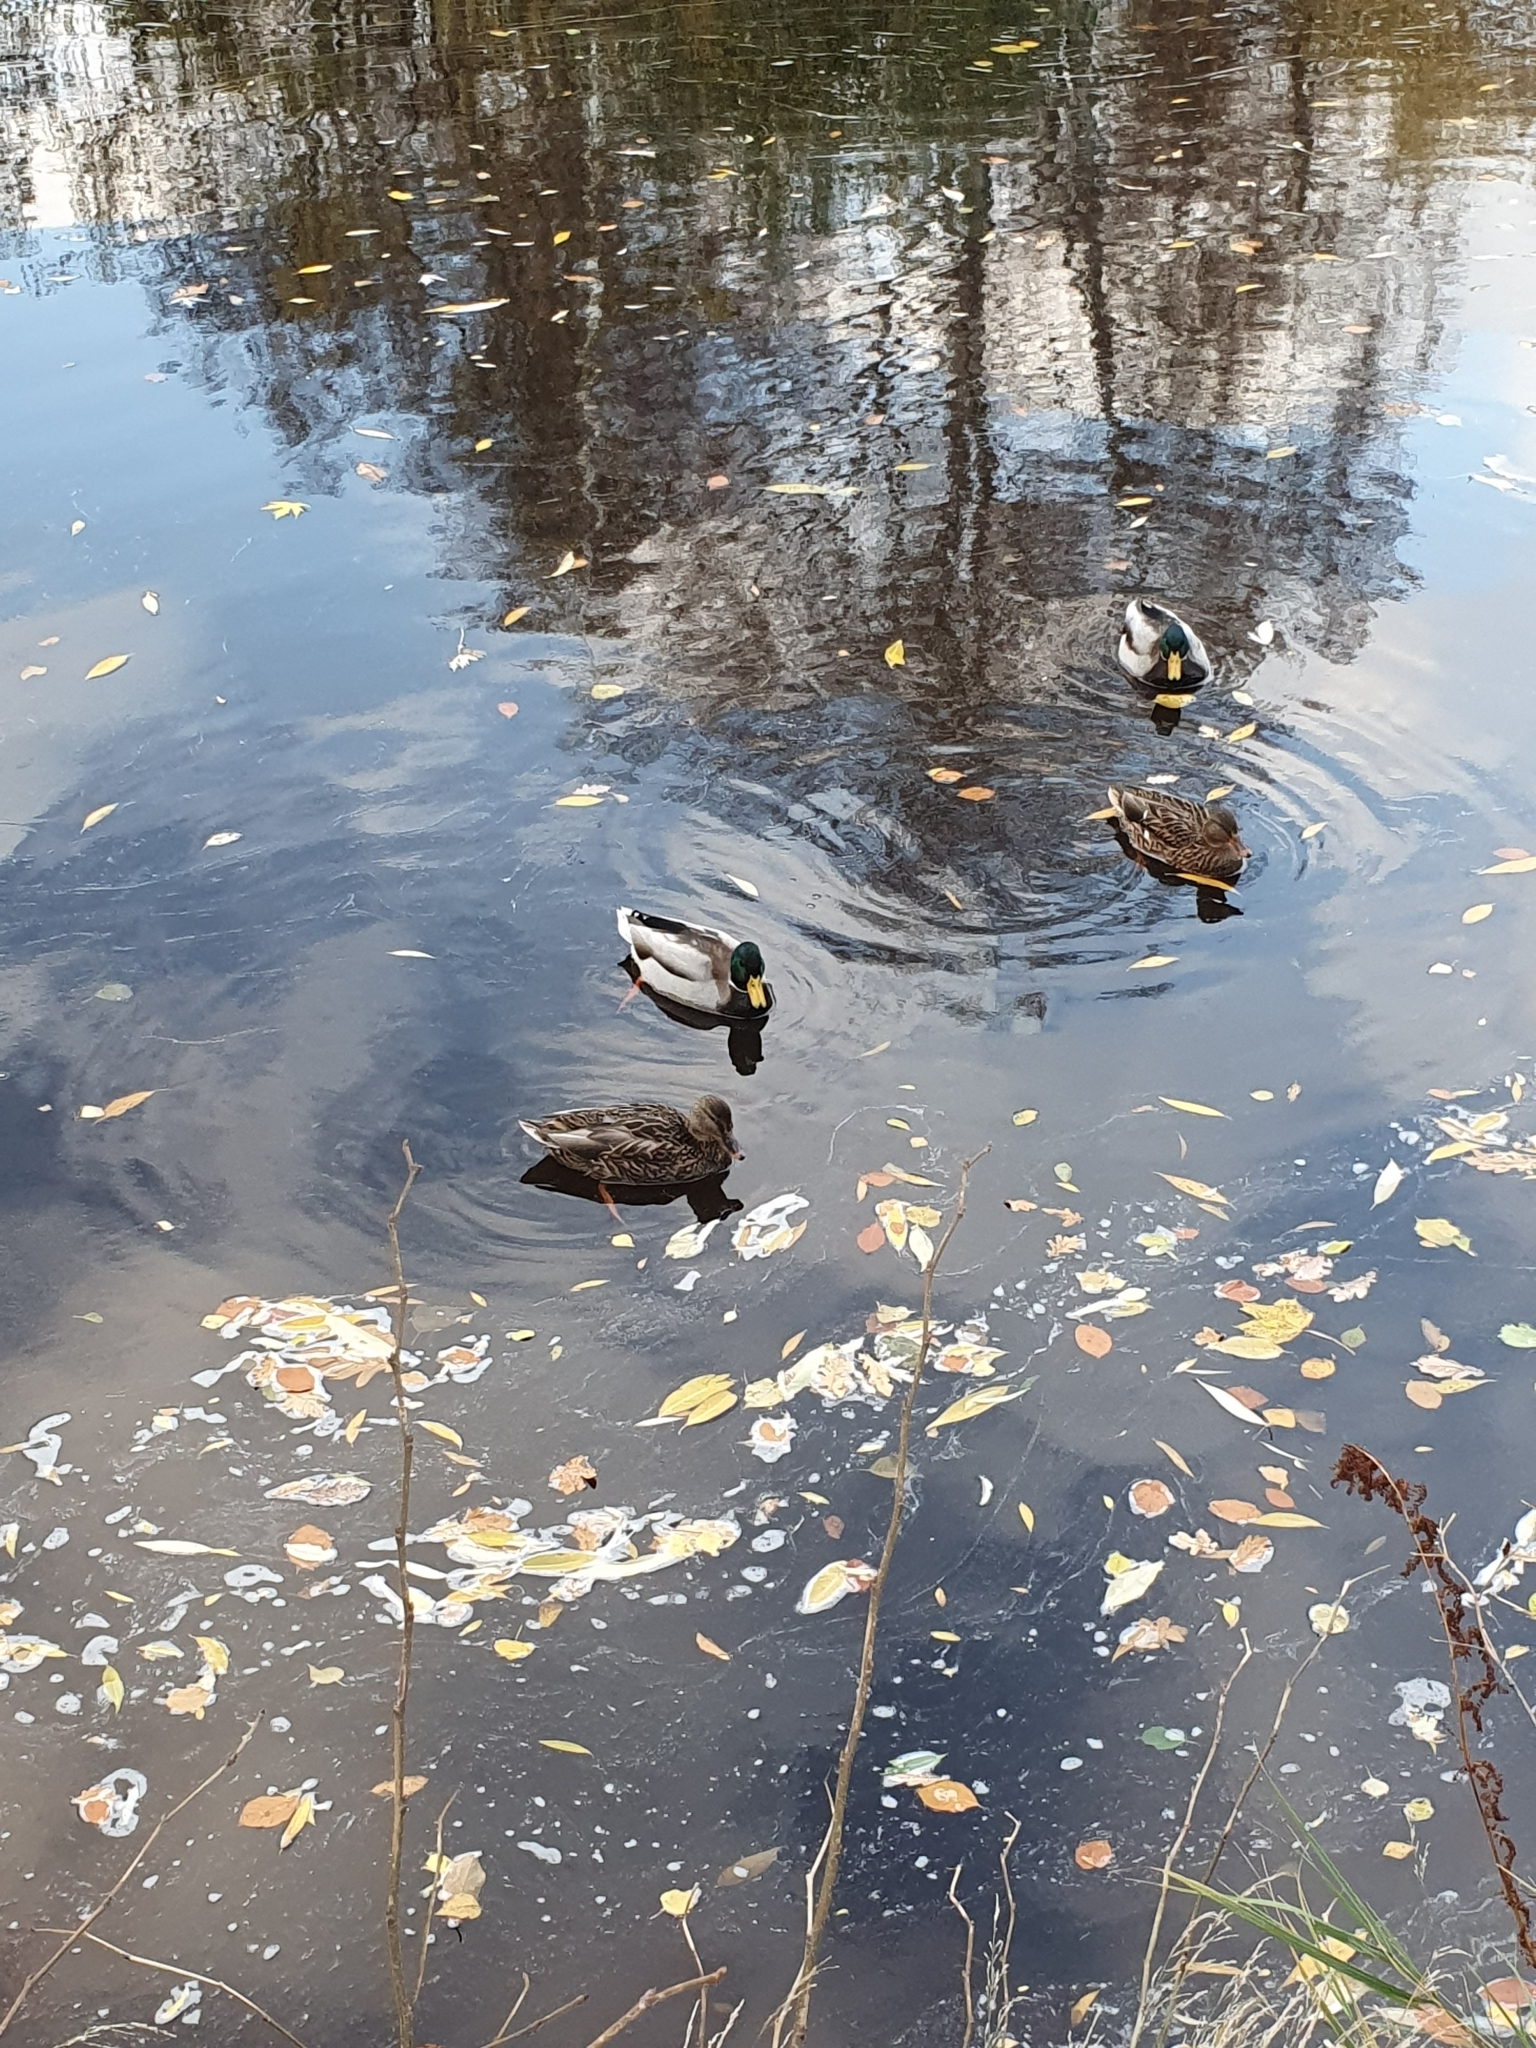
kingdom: Animalia
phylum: Chordata
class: Aves
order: Anseriformes
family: Anatidae
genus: Anas
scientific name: Anas platyrhynchos
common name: Mallard
